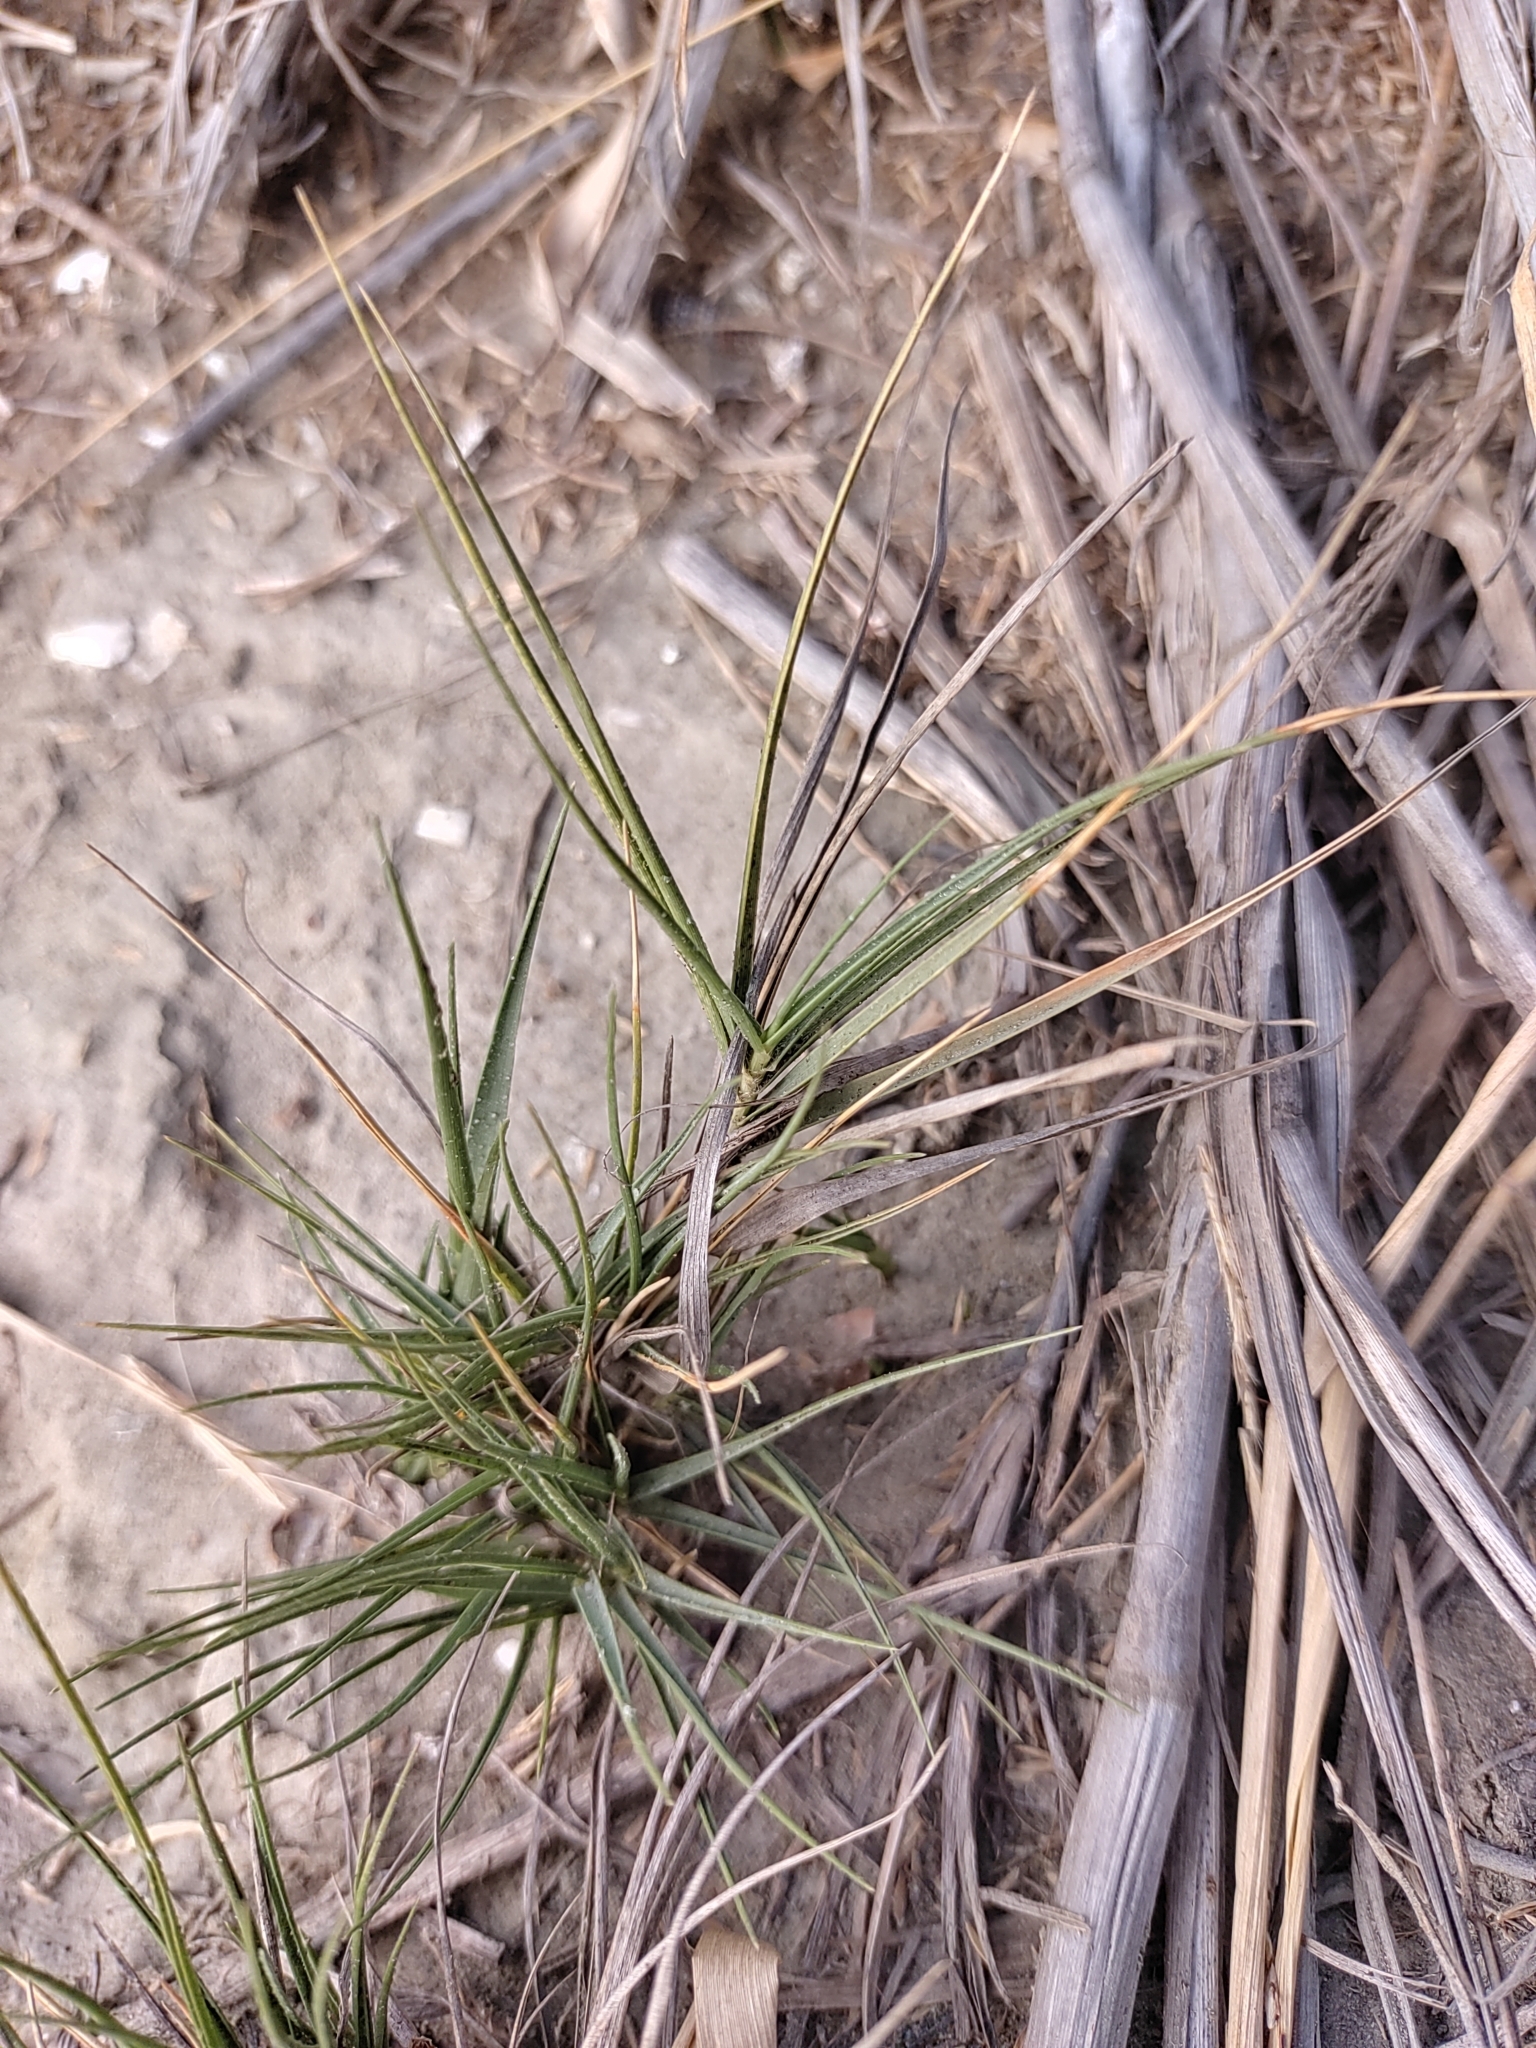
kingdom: Plantae
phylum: Tracheophyta
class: Liliopsida
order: Poales
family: Poaceae
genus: Spinifex
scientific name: Spinifex littoreus
